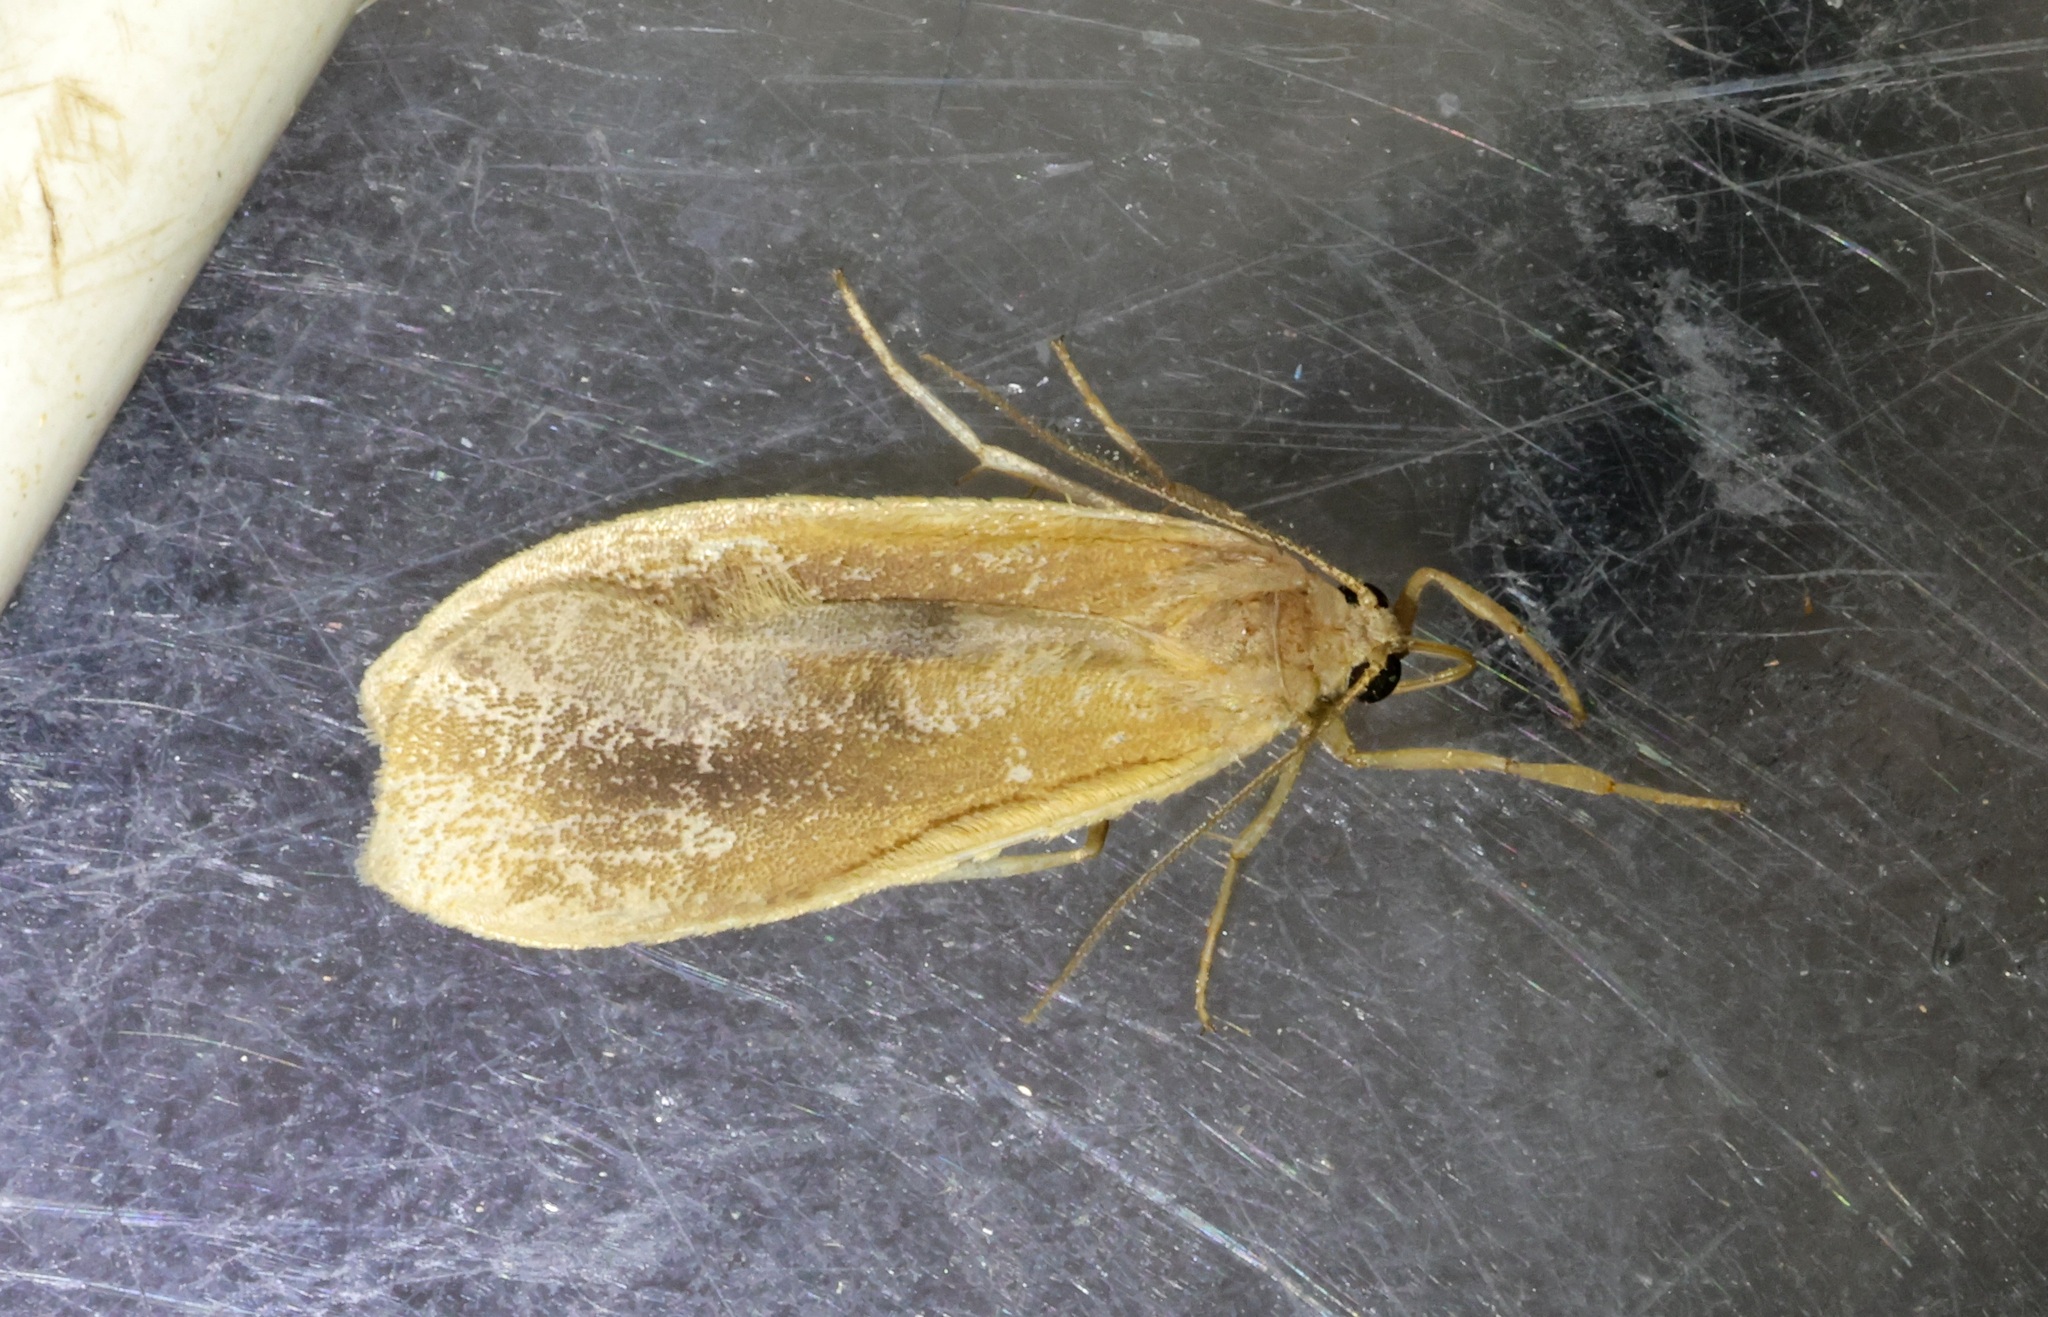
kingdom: Animalia
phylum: Arthropoda
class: Insecta
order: Lepidoptera
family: Erebidae
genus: Gampola
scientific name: Gampola sinica
